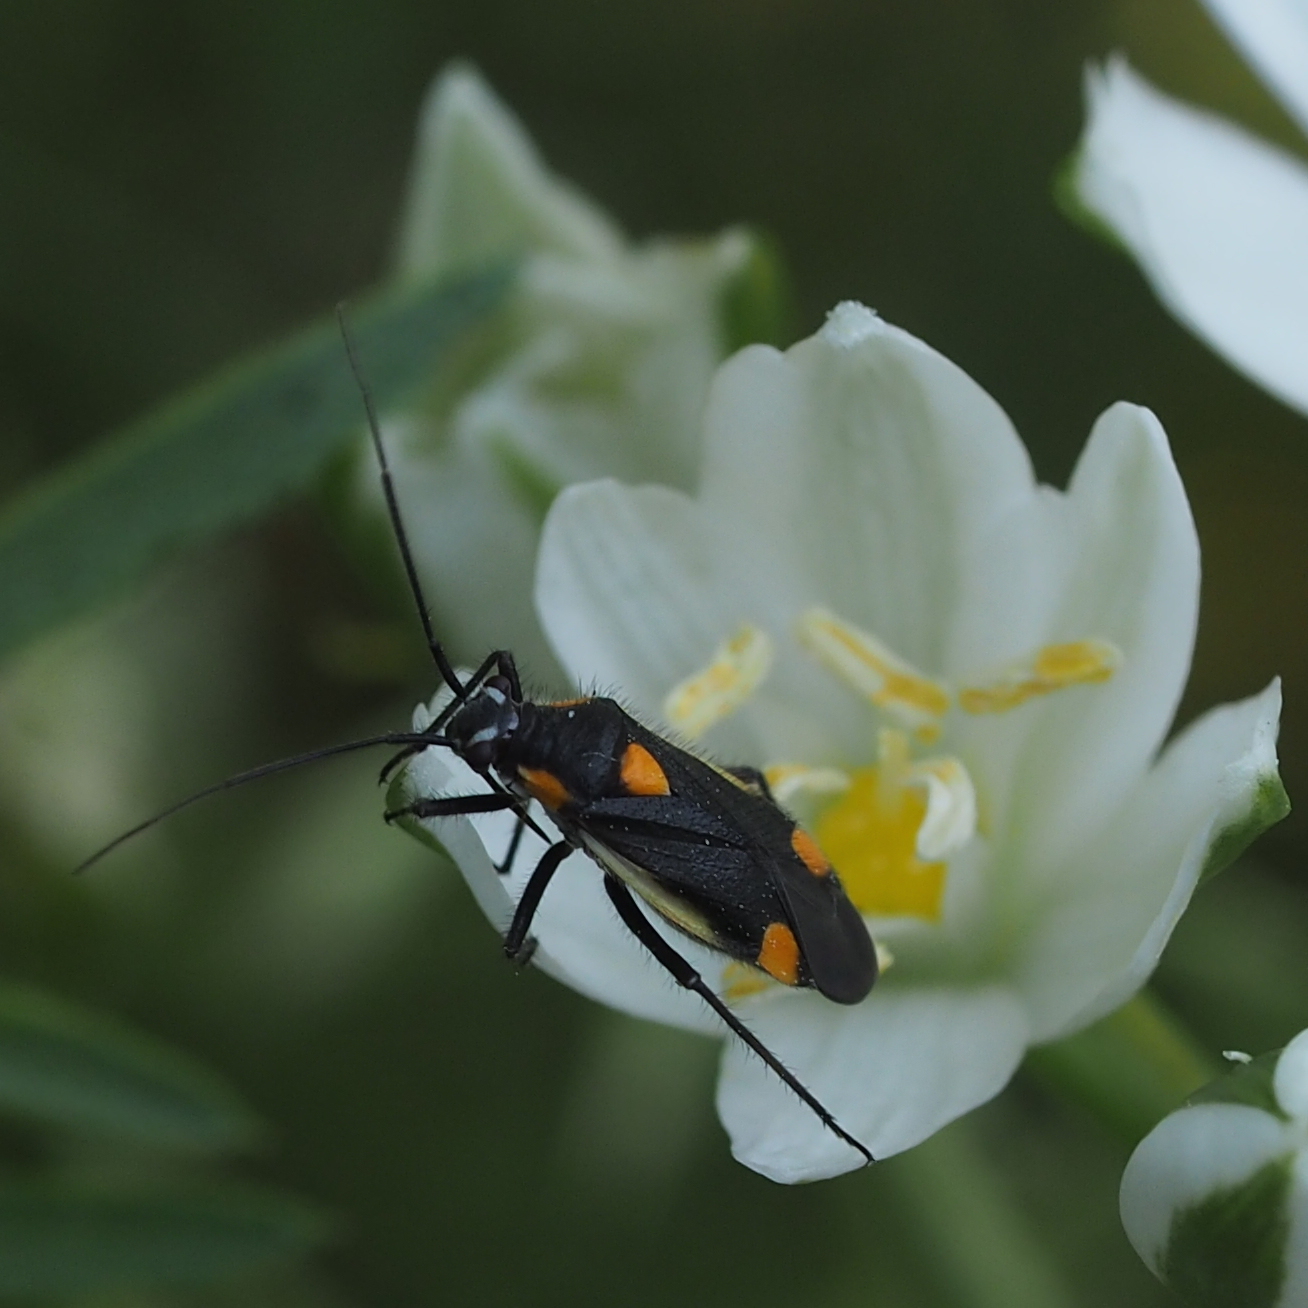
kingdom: Animalia
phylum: Arthropoda
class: Insecta
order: Hemiptera
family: Miridae
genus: Capsodes
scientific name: Capsodes gothicus
